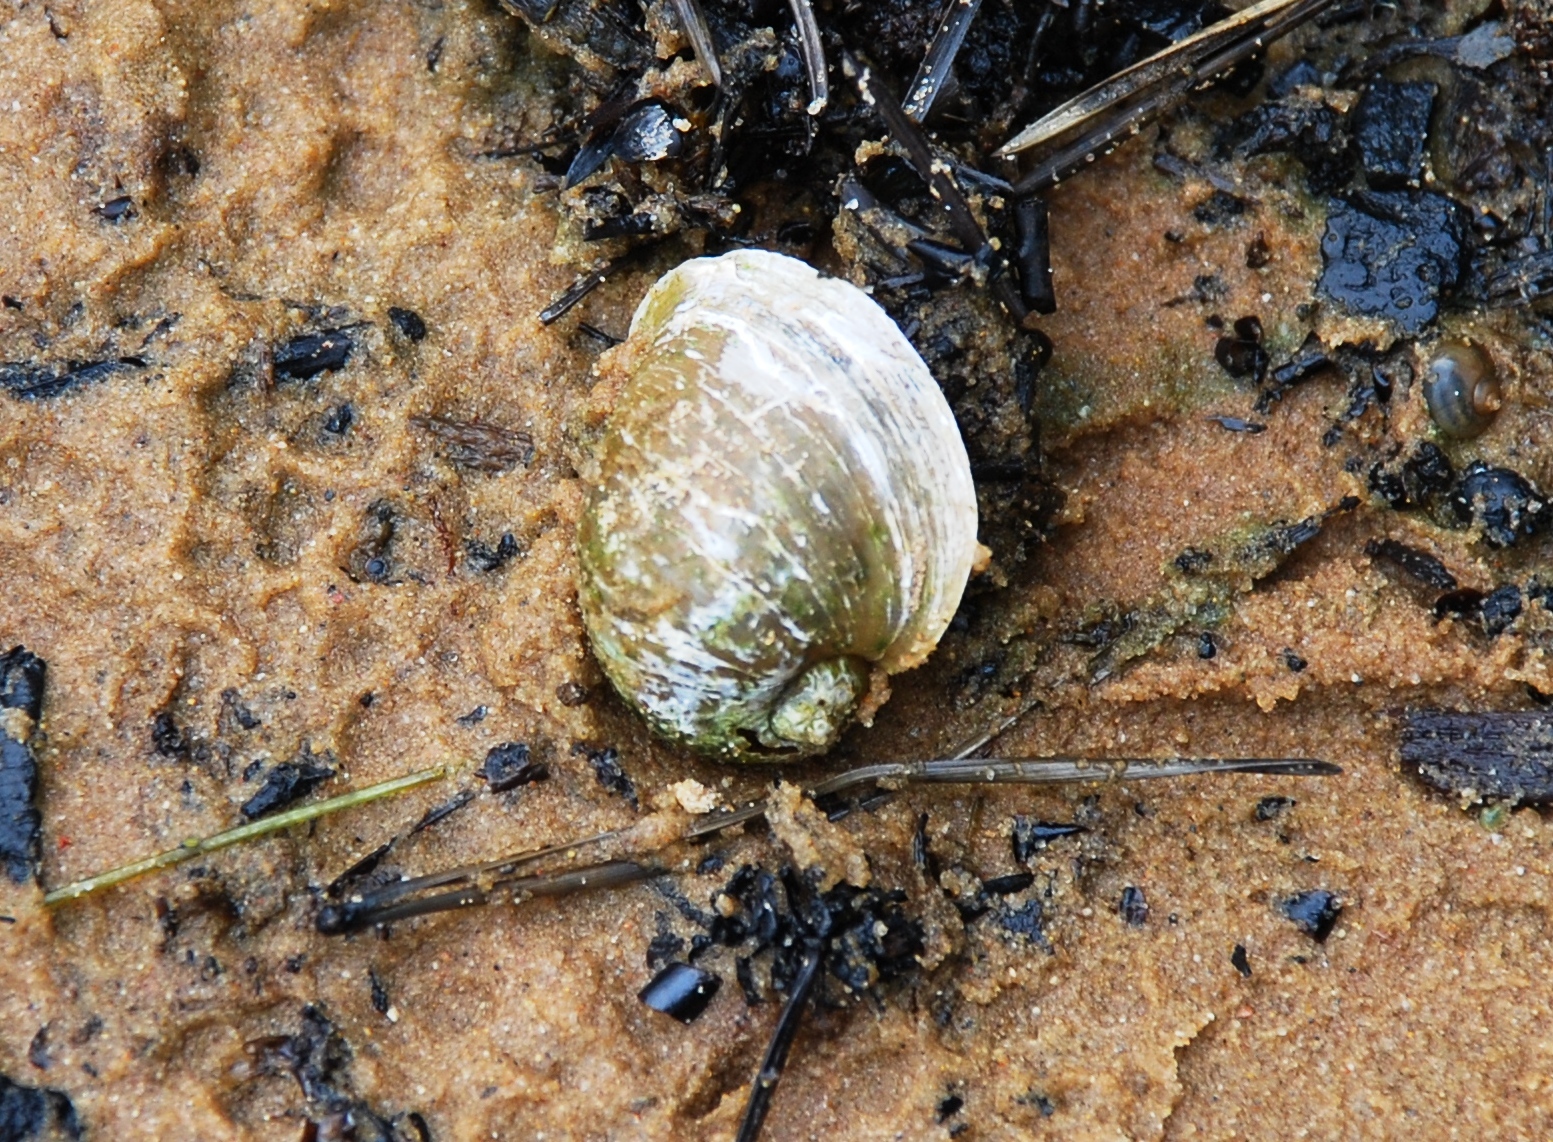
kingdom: Animalia
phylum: Mollusca
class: Gastropoda
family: Lymnaeidae
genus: Radix
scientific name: Radix auricularia
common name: Ear pond snail
